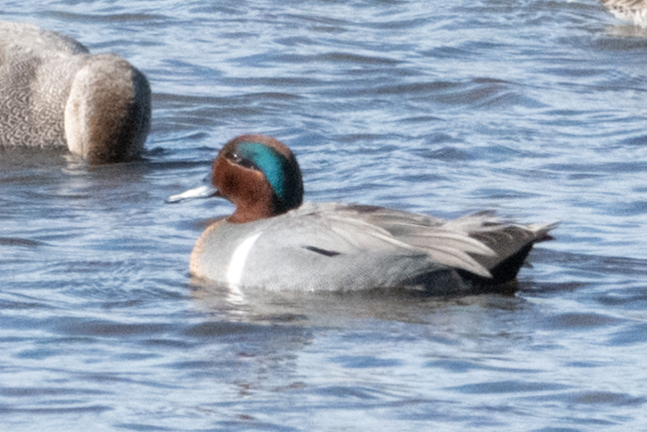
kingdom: Animalia
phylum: Chordata
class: Aves
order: Anseriformes
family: Anatidae
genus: Anas
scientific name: Anas crecca
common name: Eurasian teal
